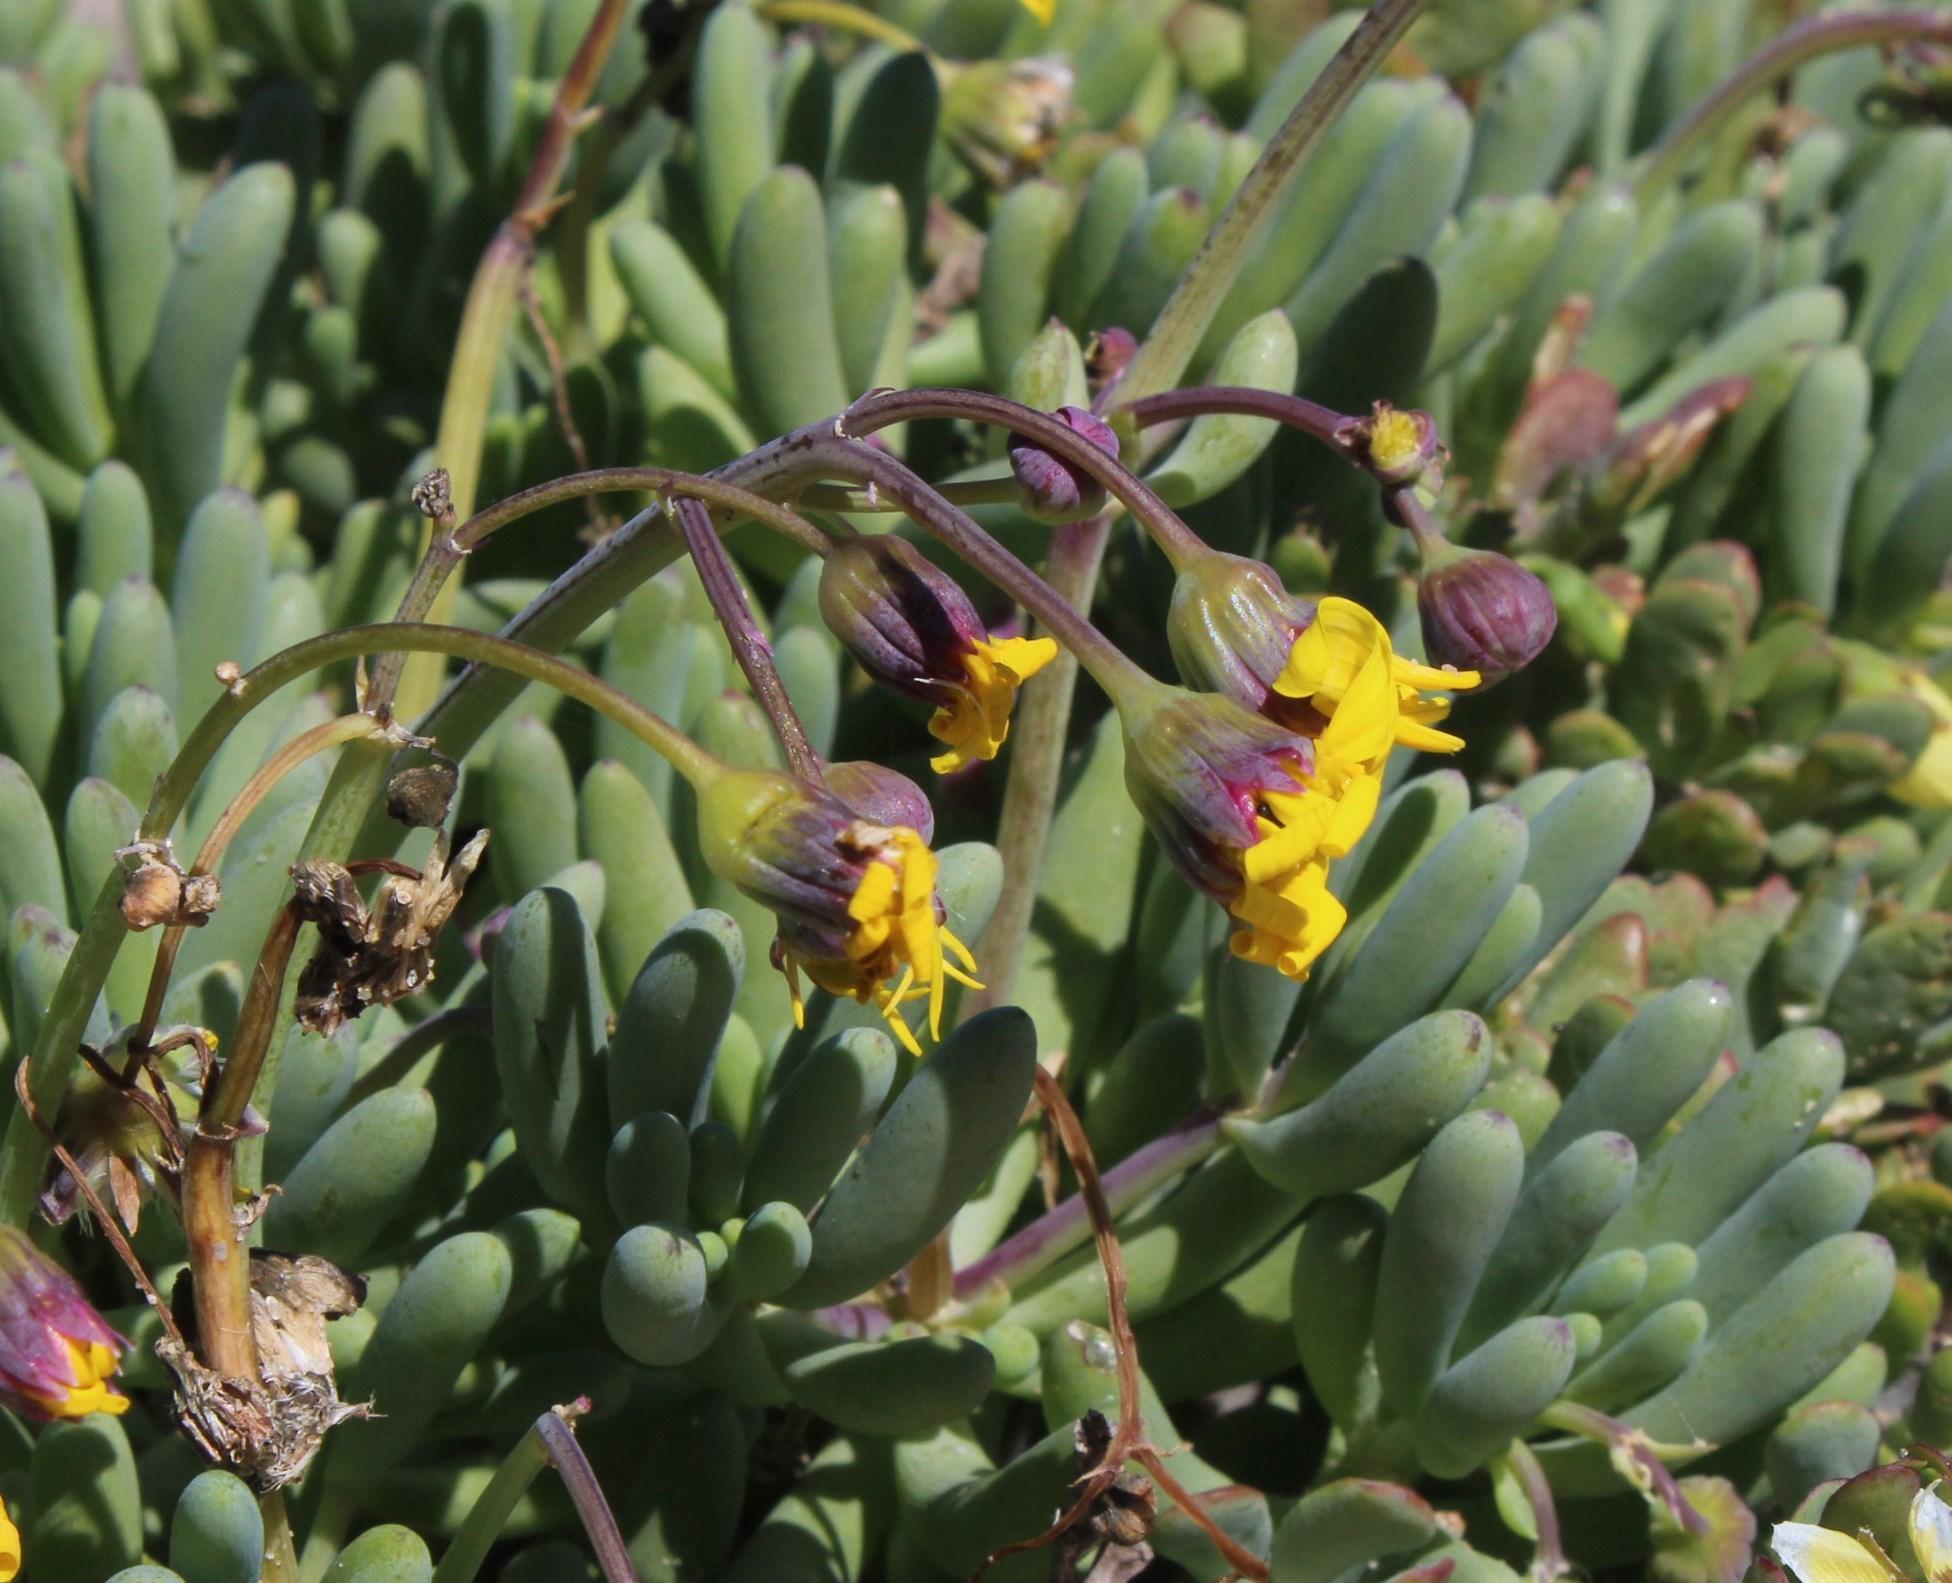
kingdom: Plantae
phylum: Tracheophyta
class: Magnoliopsida
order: Asterales
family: Asteraceae
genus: Crassothonna
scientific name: Crassothonna cylindrica
